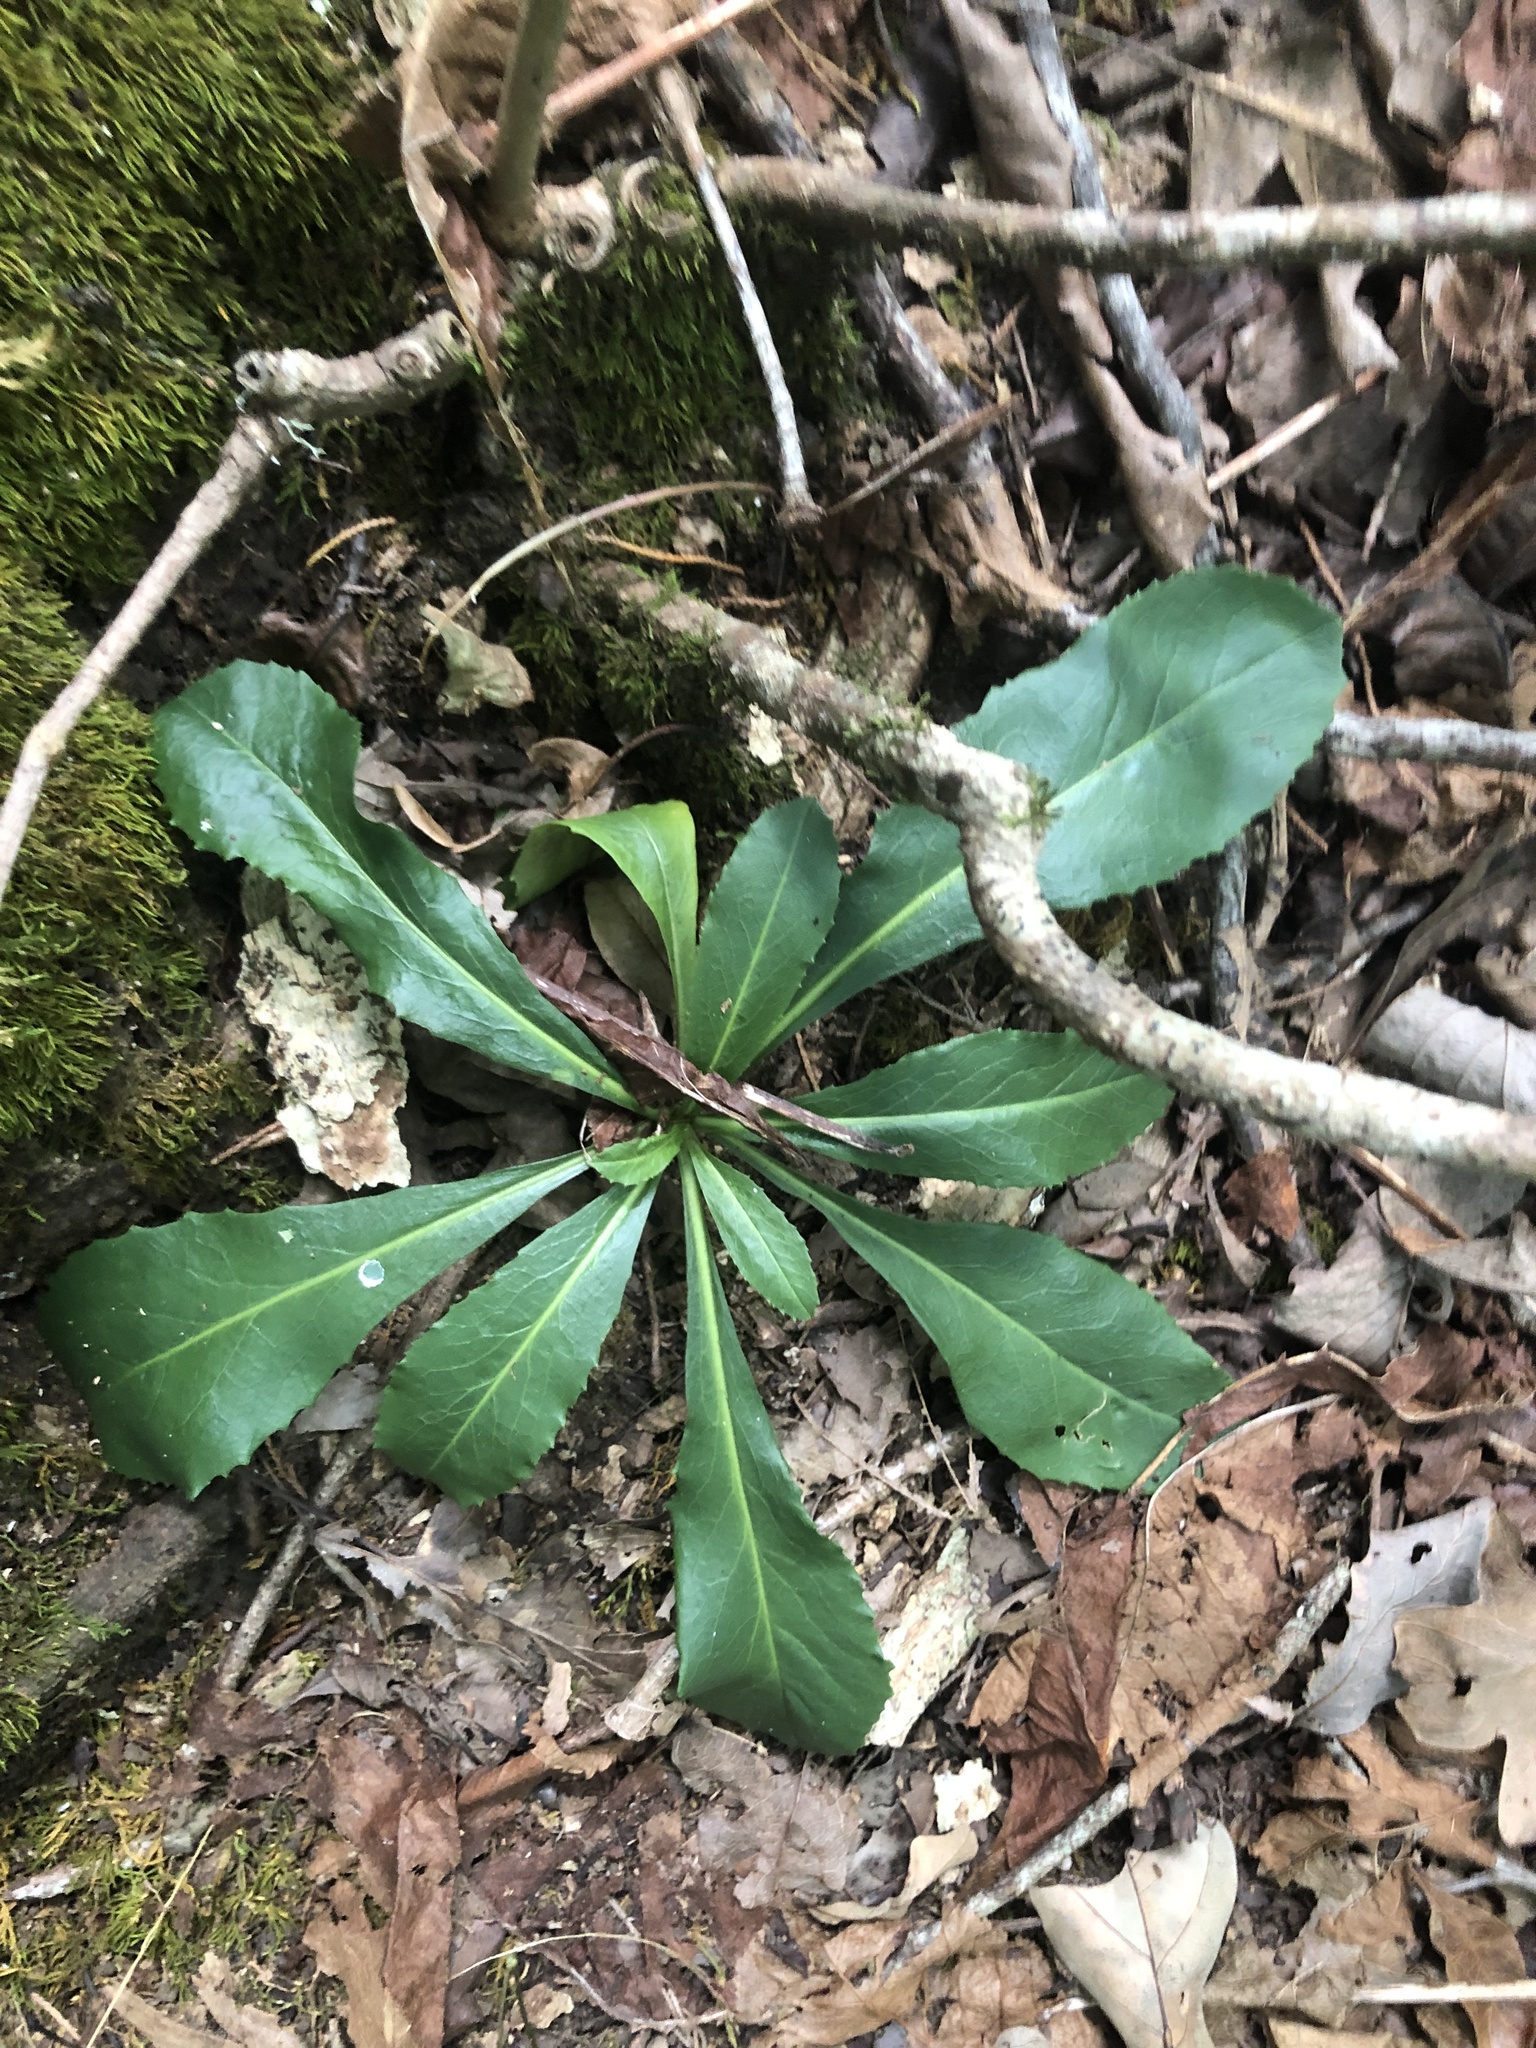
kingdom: Plantae
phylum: Tracheophyta
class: Magnoliopsida
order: Brassicales
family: Brassicaceae
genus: Borodinia
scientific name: Borodinia canadensis
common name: Sicklepod
